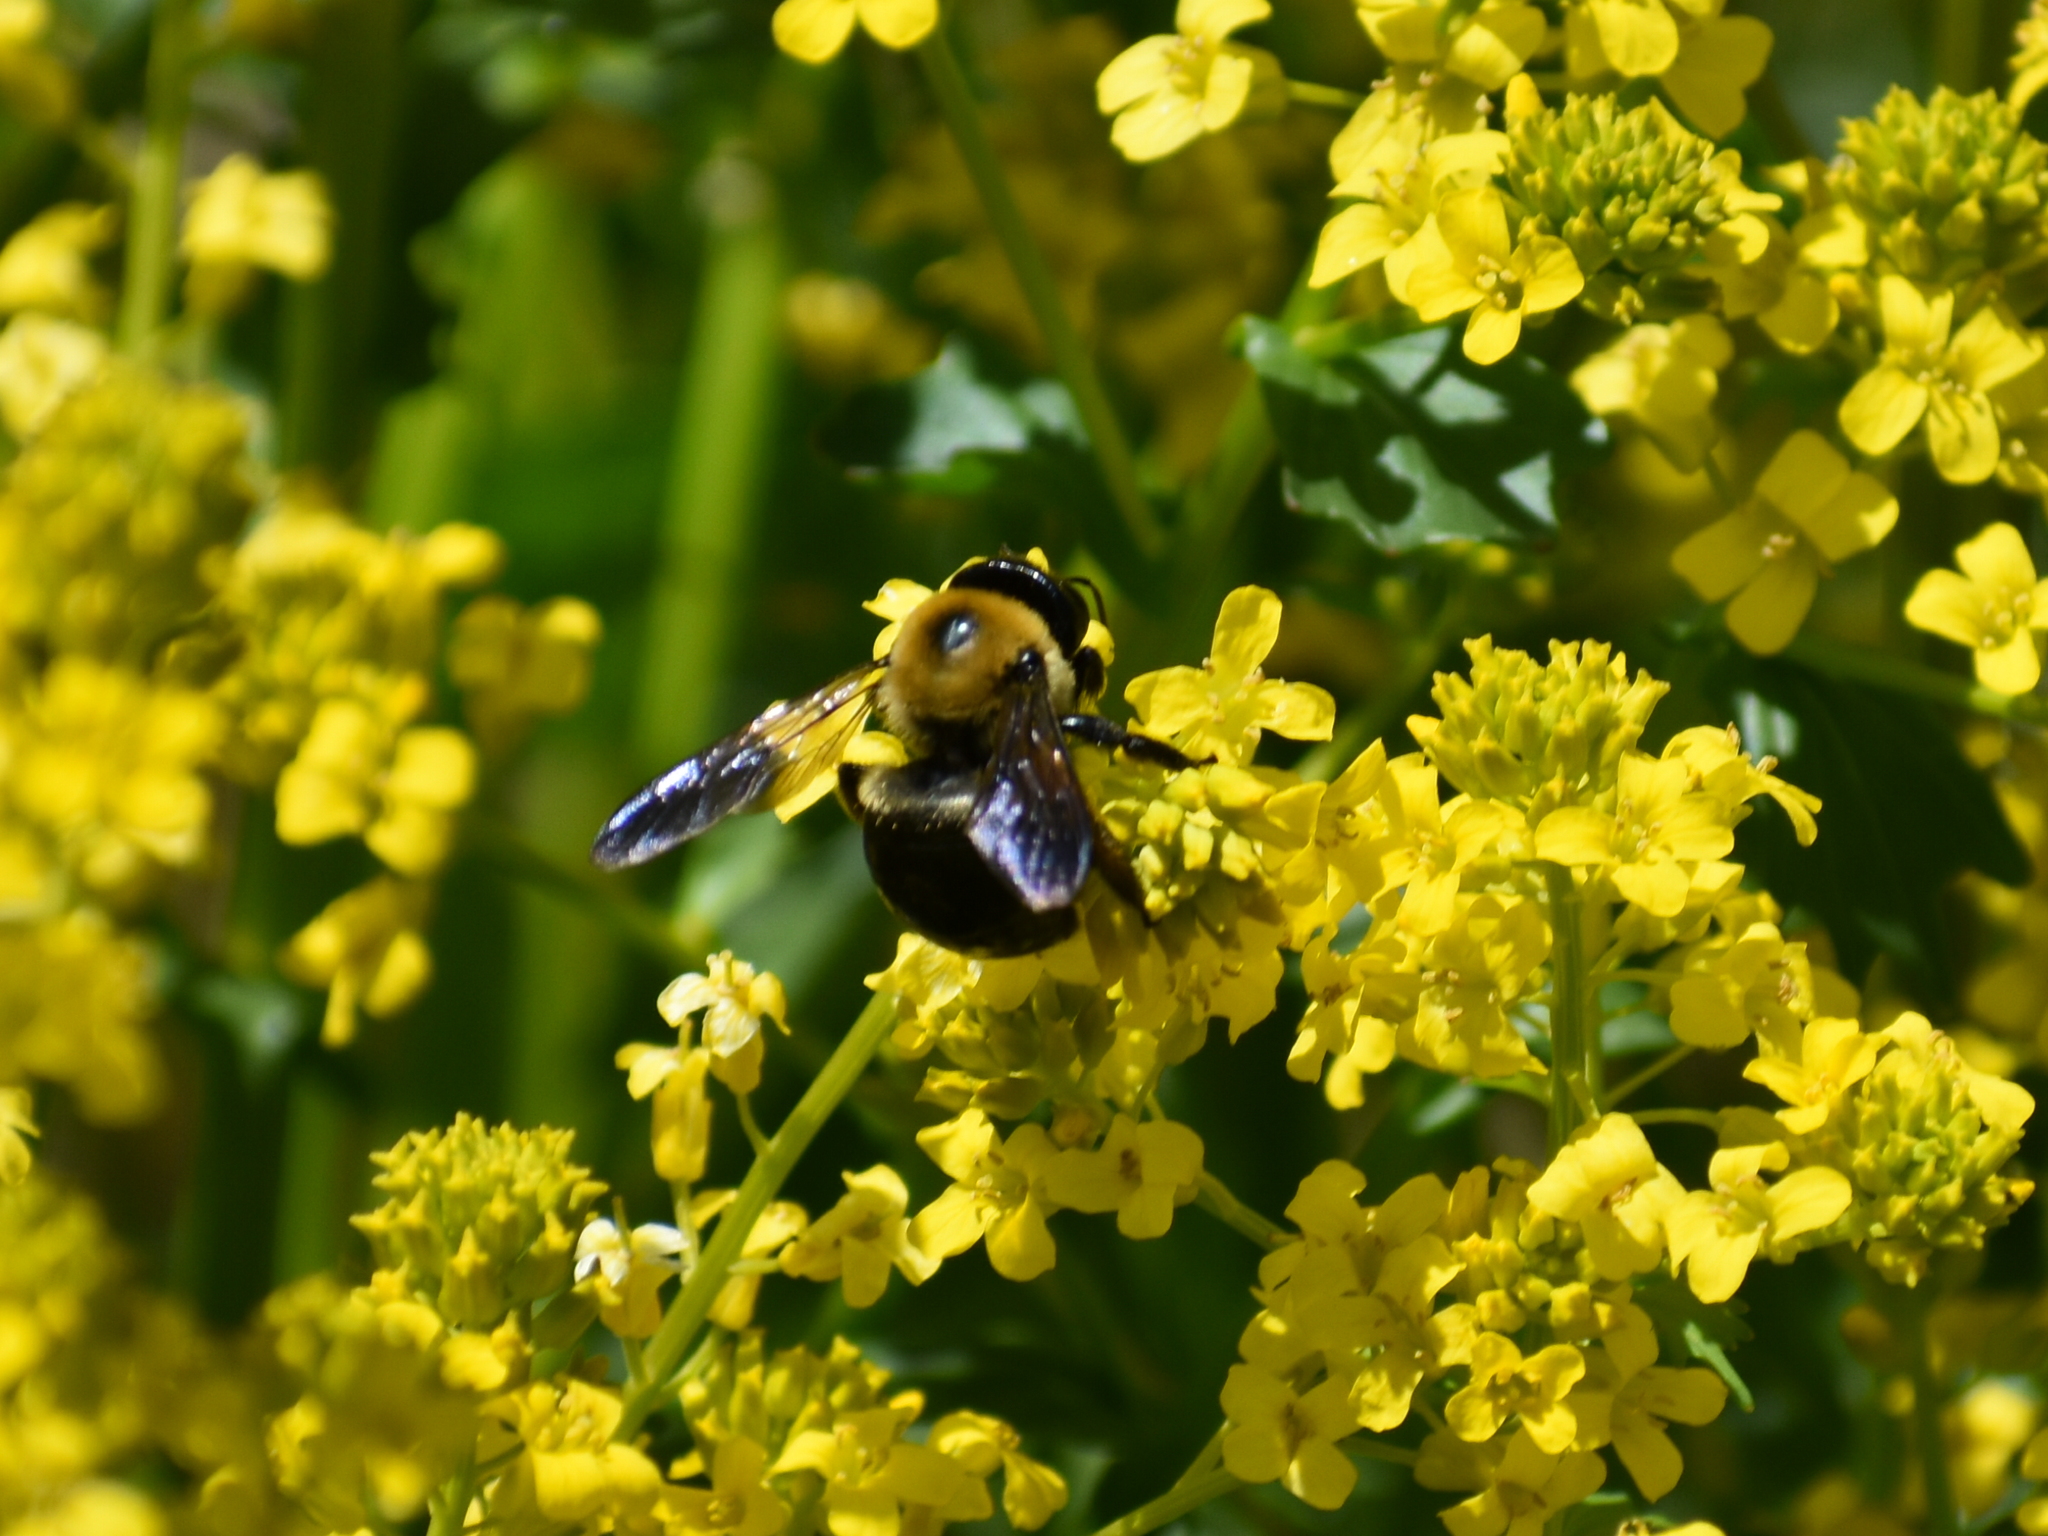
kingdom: Animalia
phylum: Arthropoda
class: Insecta
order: Hymenoptera
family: Apidae
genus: Xylocopa
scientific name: Xylocopa virginica
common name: Carpenter bee
